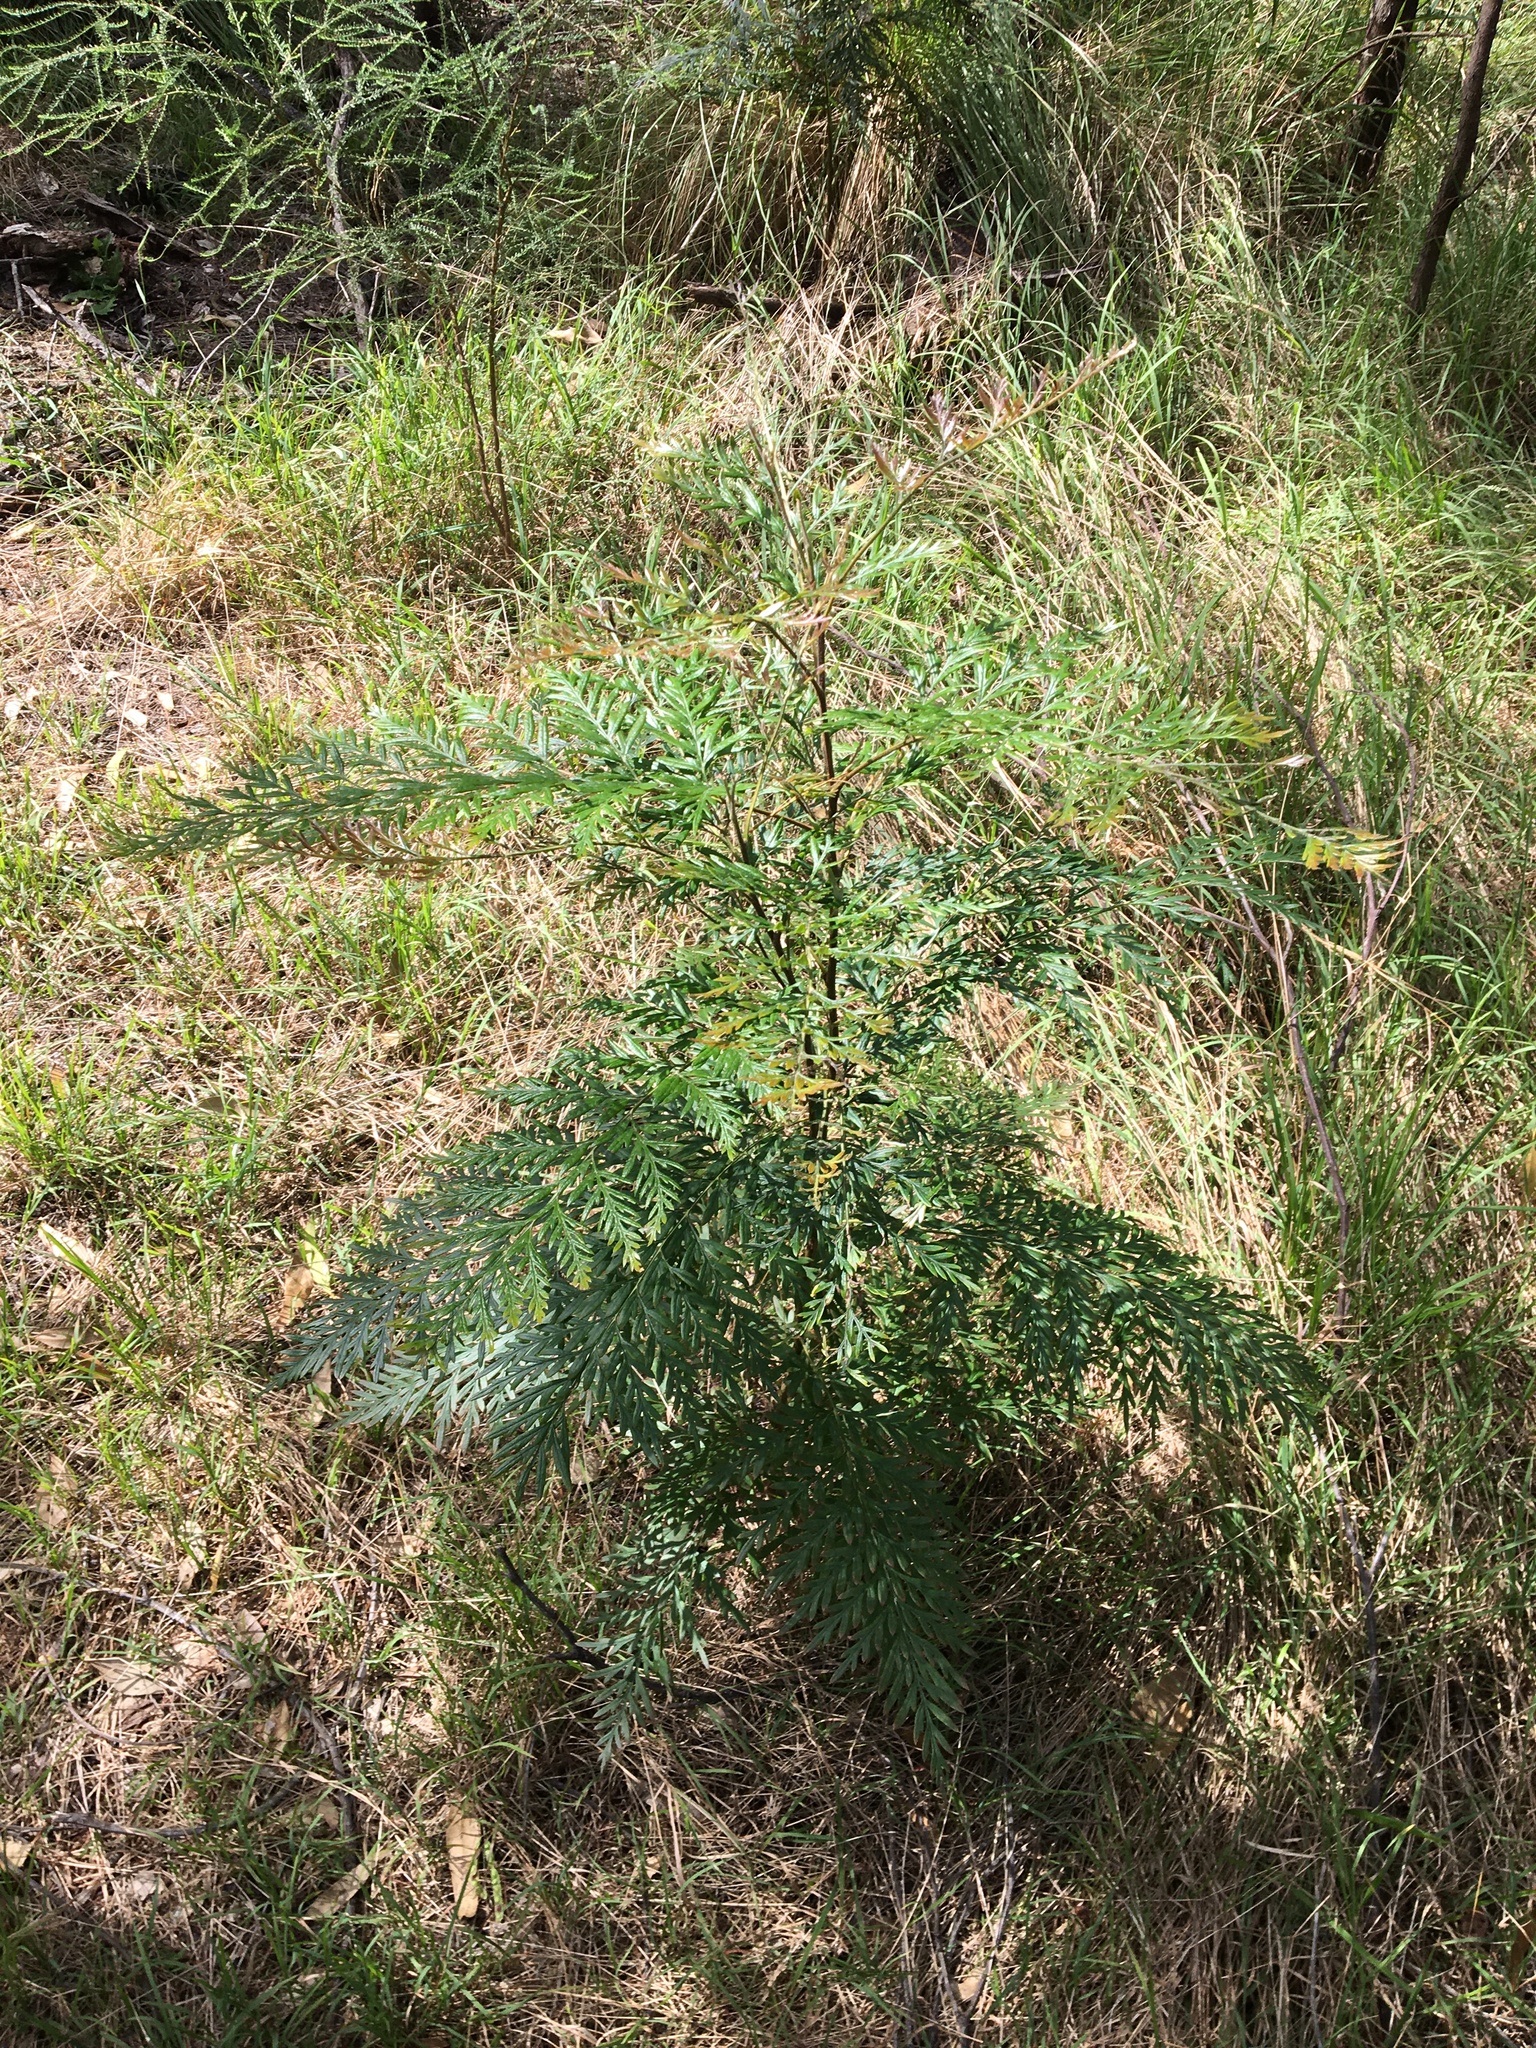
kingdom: Plantae
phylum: Tracheophyta
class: Magnoliopsida
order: Proteales
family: Proteaceae
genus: Grevillea
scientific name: Grevillea robusta
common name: Silkoak
